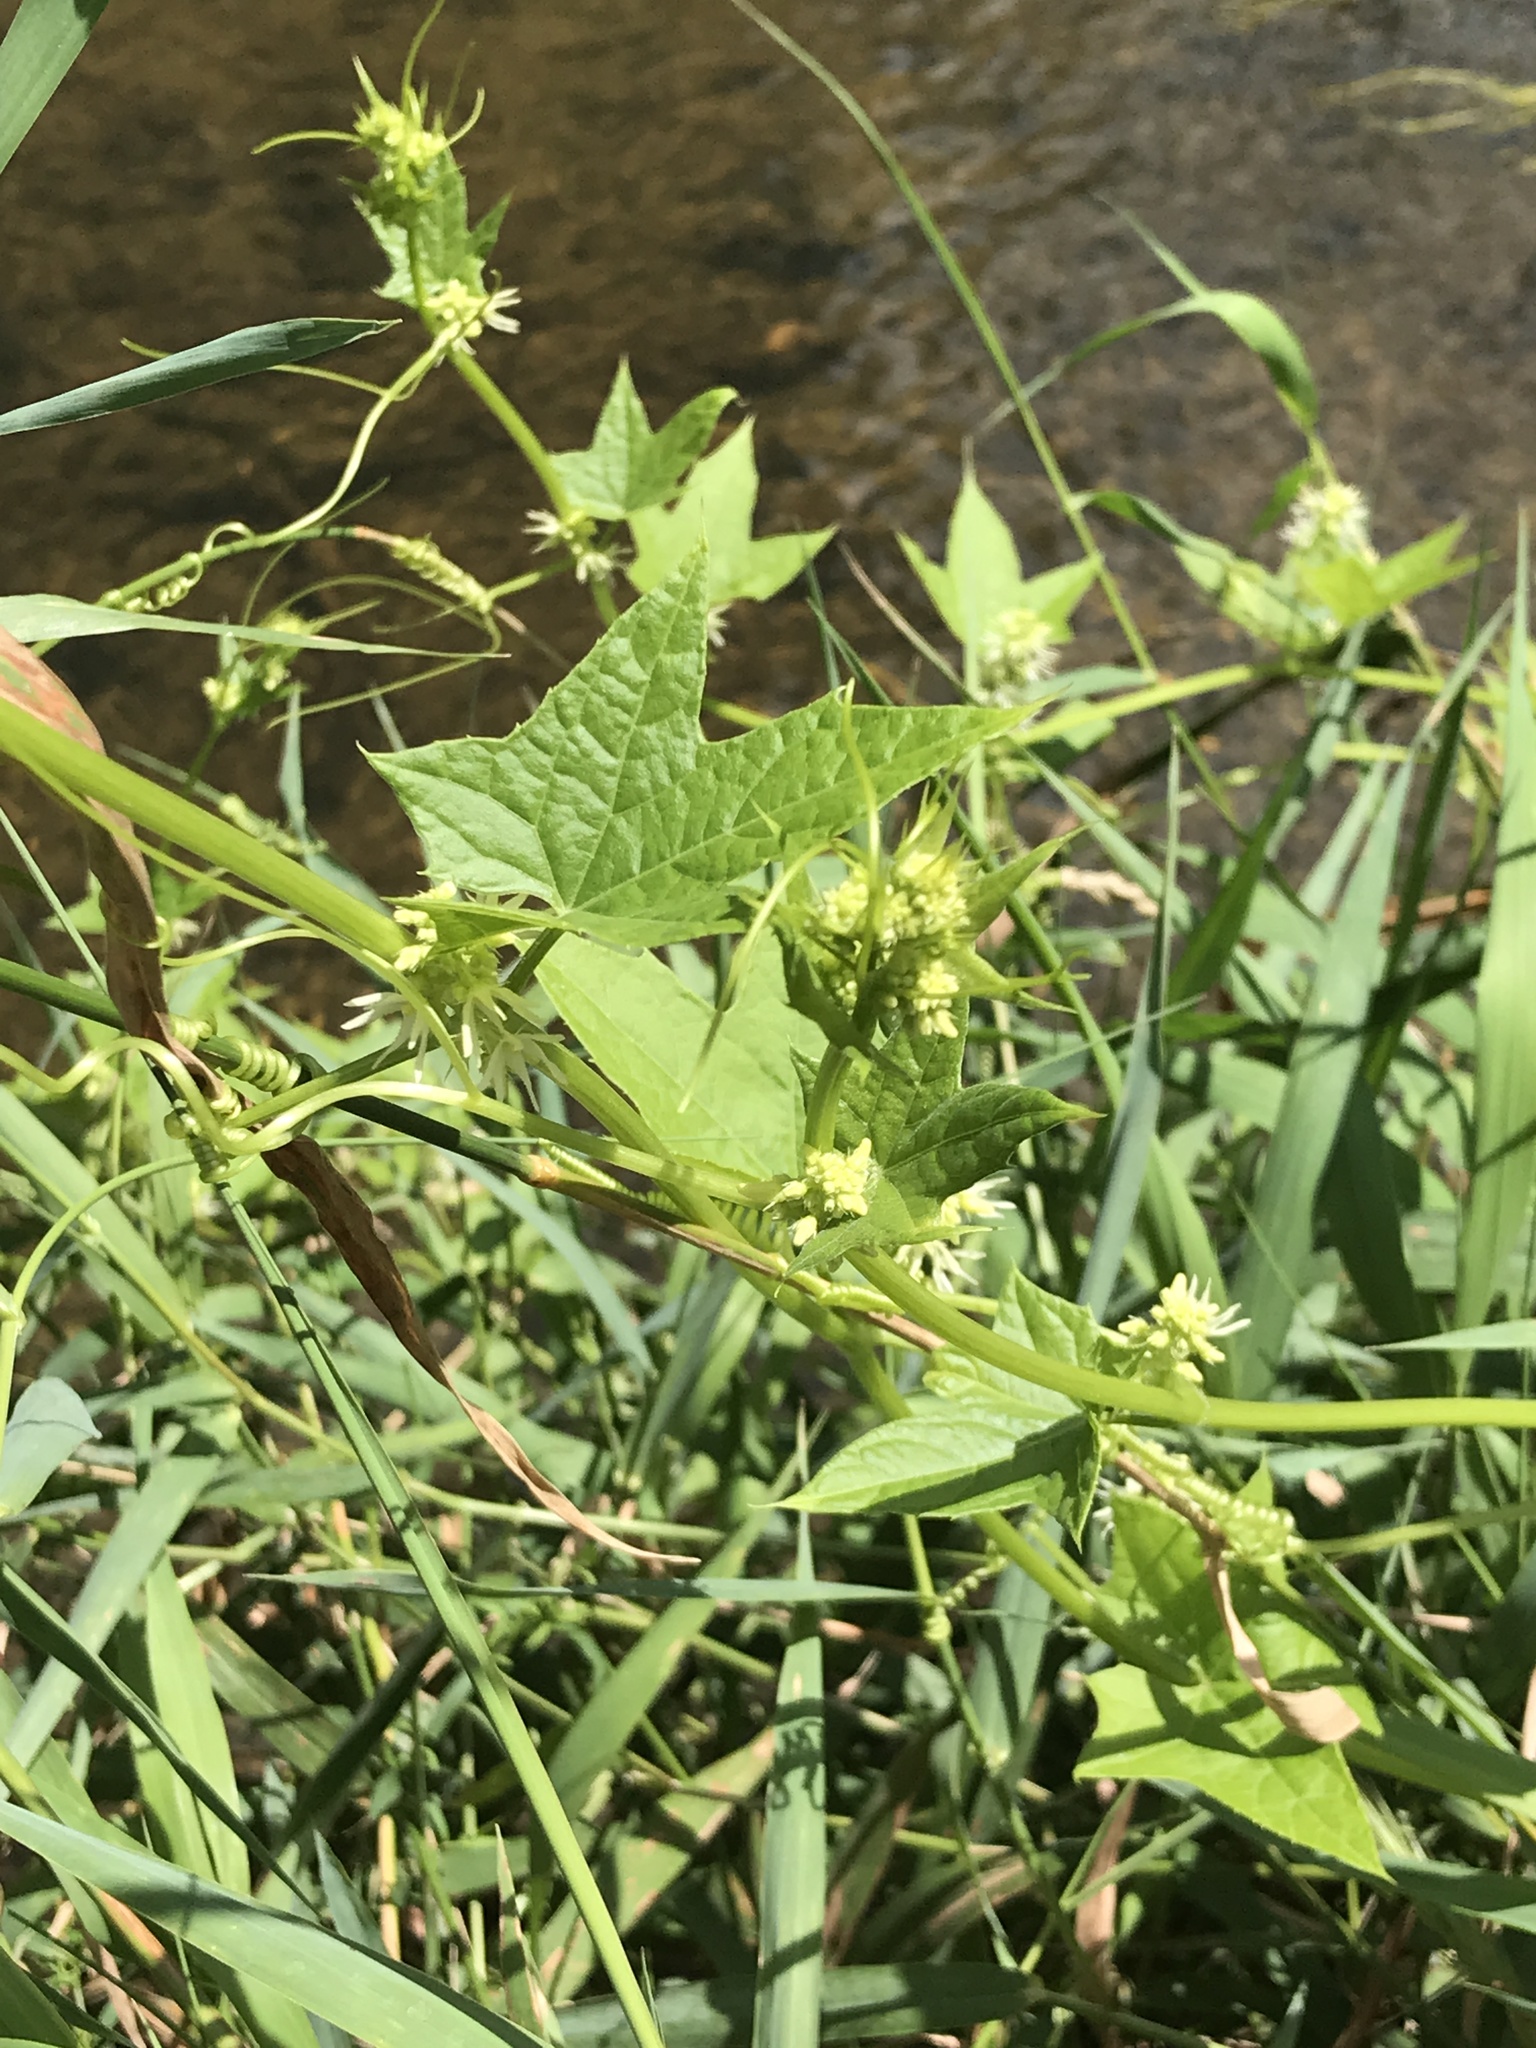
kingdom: Plantae
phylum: Tracheophyta
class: Magnoliopsida
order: Cucurbitales
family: Cucurbitaceae
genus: Echinocystis
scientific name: Echinocystis lobata
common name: Wild cucumber
